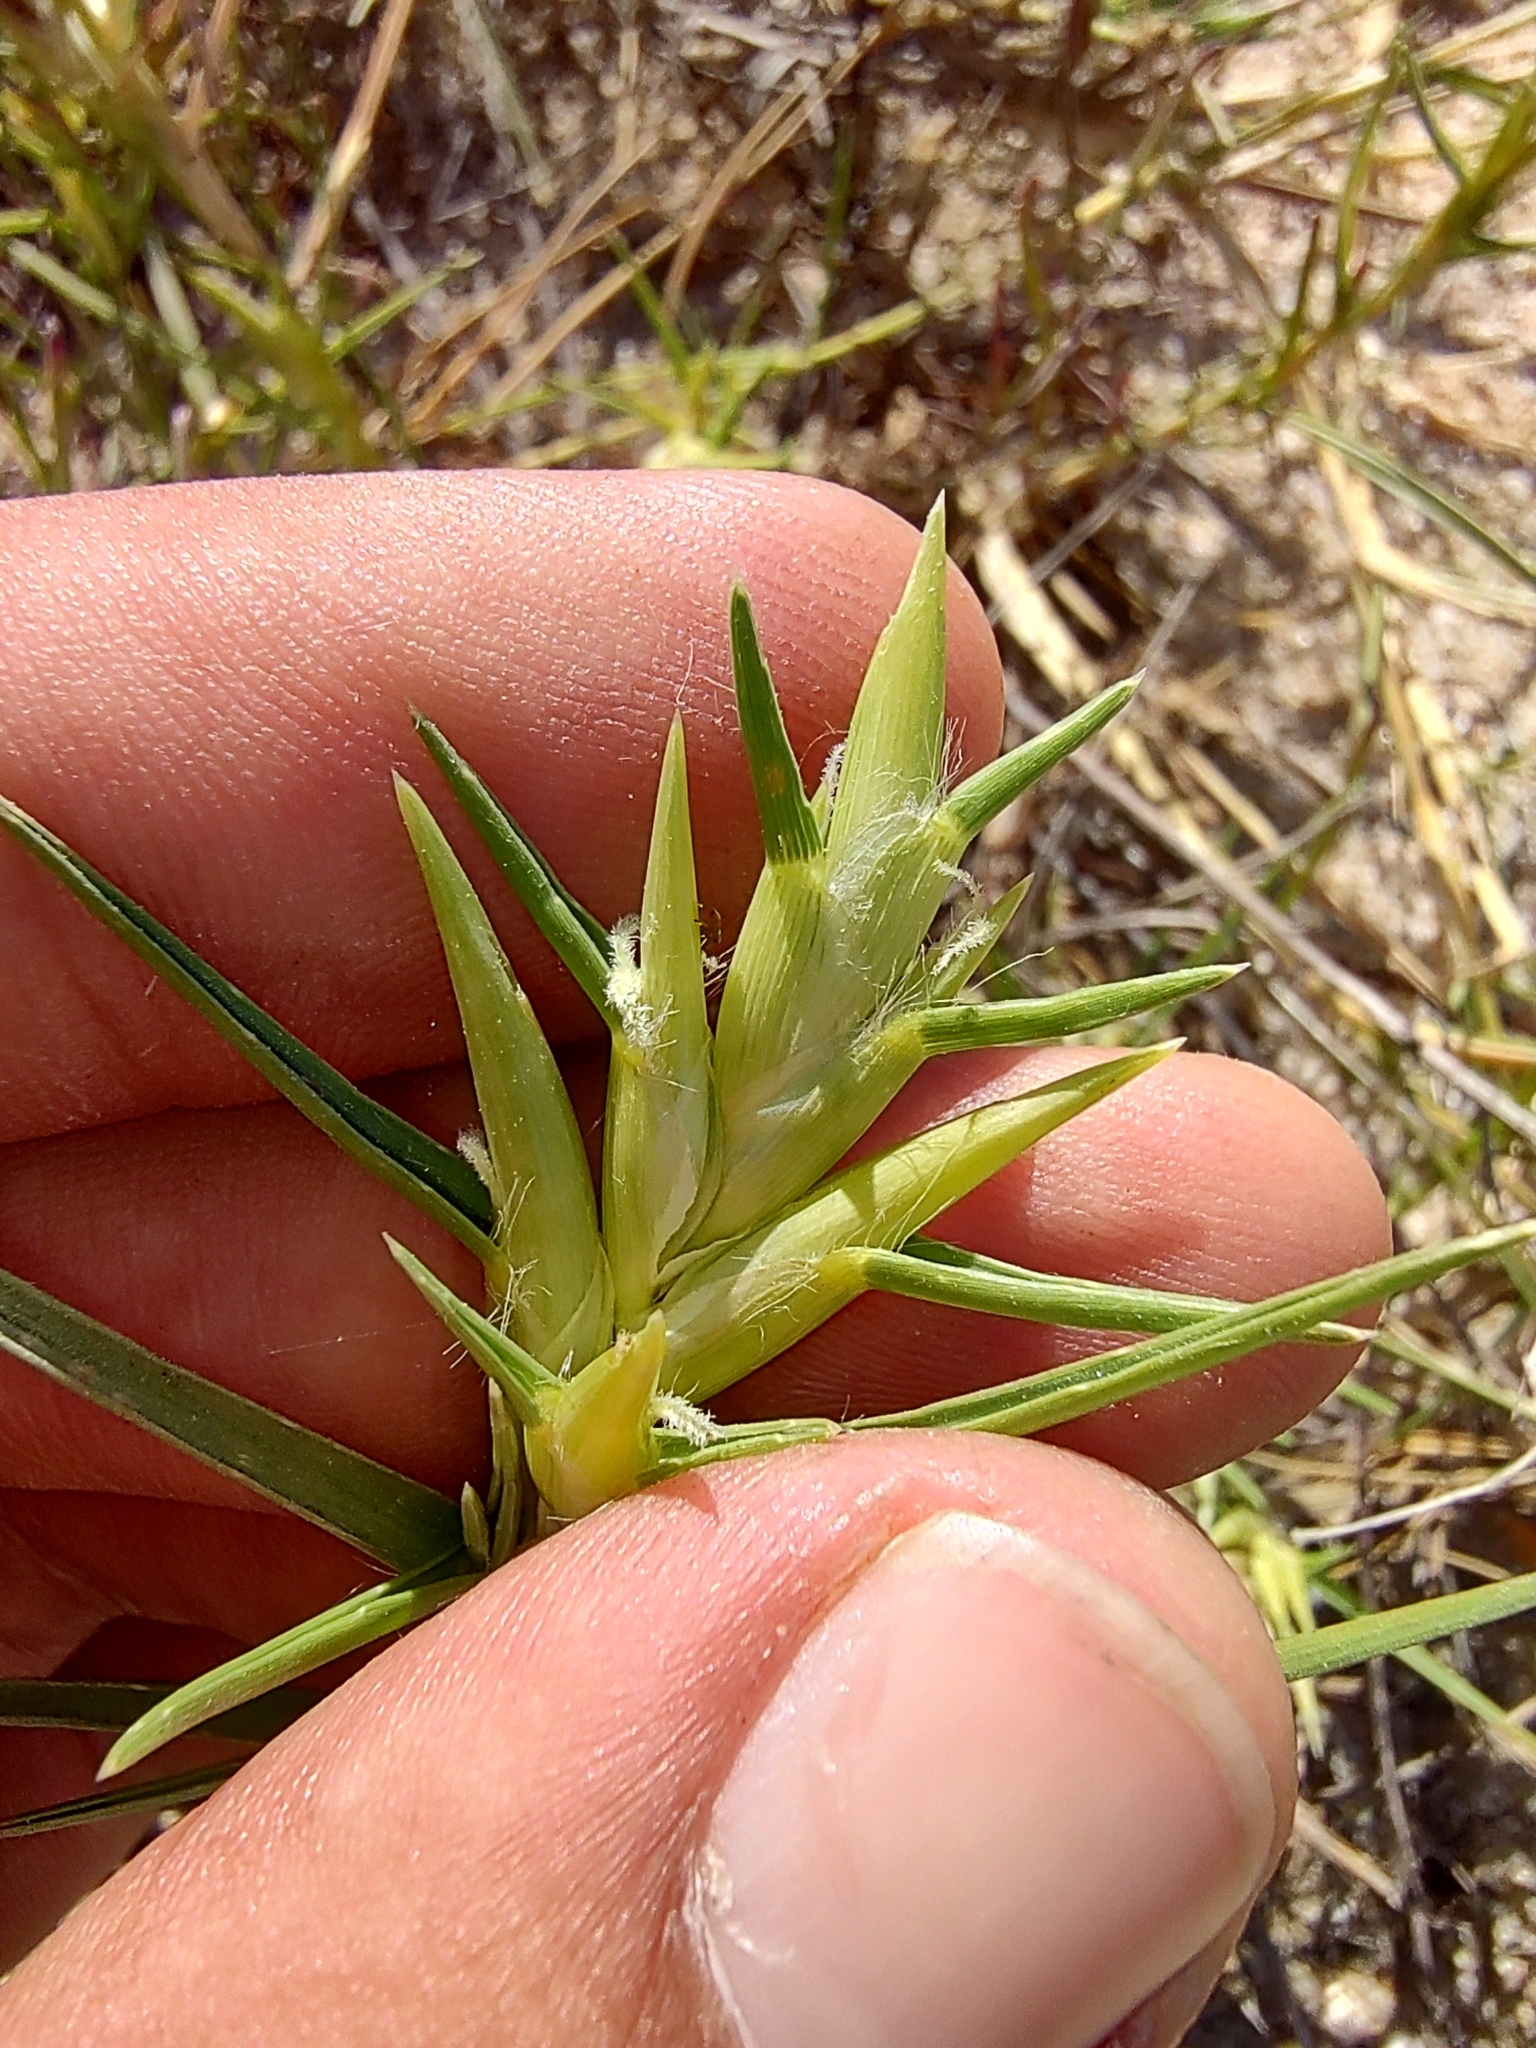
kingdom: Plantae
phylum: Tracheophyta
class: Liliopsida
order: Poales
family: Poaceae
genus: Jouvea
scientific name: Jouvea pilosa
